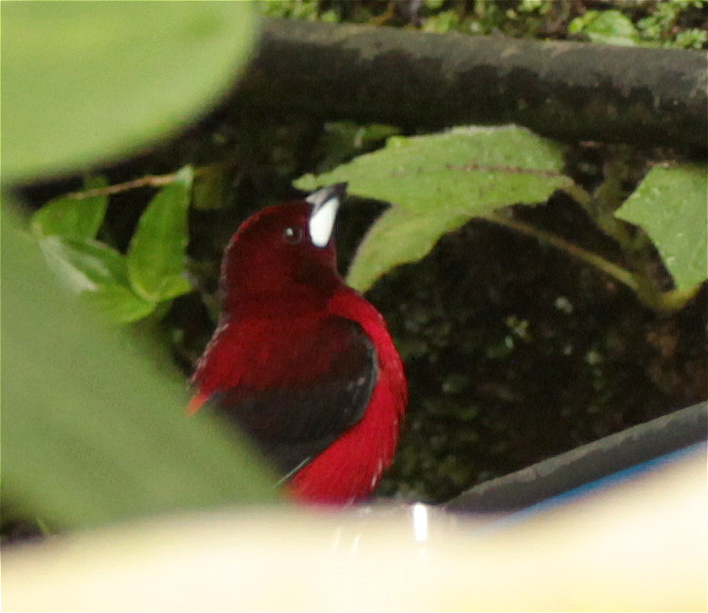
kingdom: Animalia
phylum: Chordata
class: Aves
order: Passeriformes
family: Thraupidae
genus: Ramphocelus
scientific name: Ramphocelus dimidiatus
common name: Crimson-backed tanager
